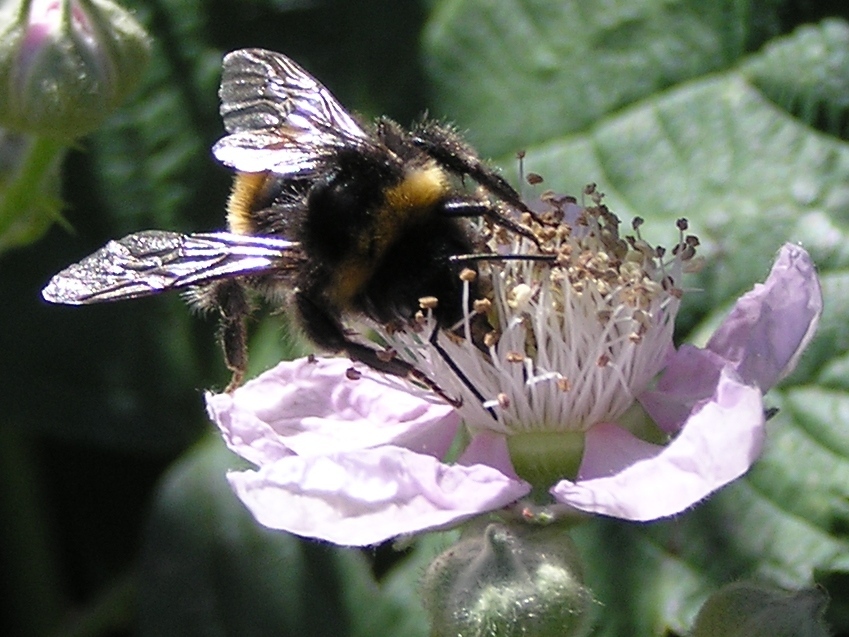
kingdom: Animalia
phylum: Arthropoda
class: Insecta
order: Hymenoptera
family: Apidae
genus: Bombus
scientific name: Bombus terrestris
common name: Buff-tailed bumblebee
